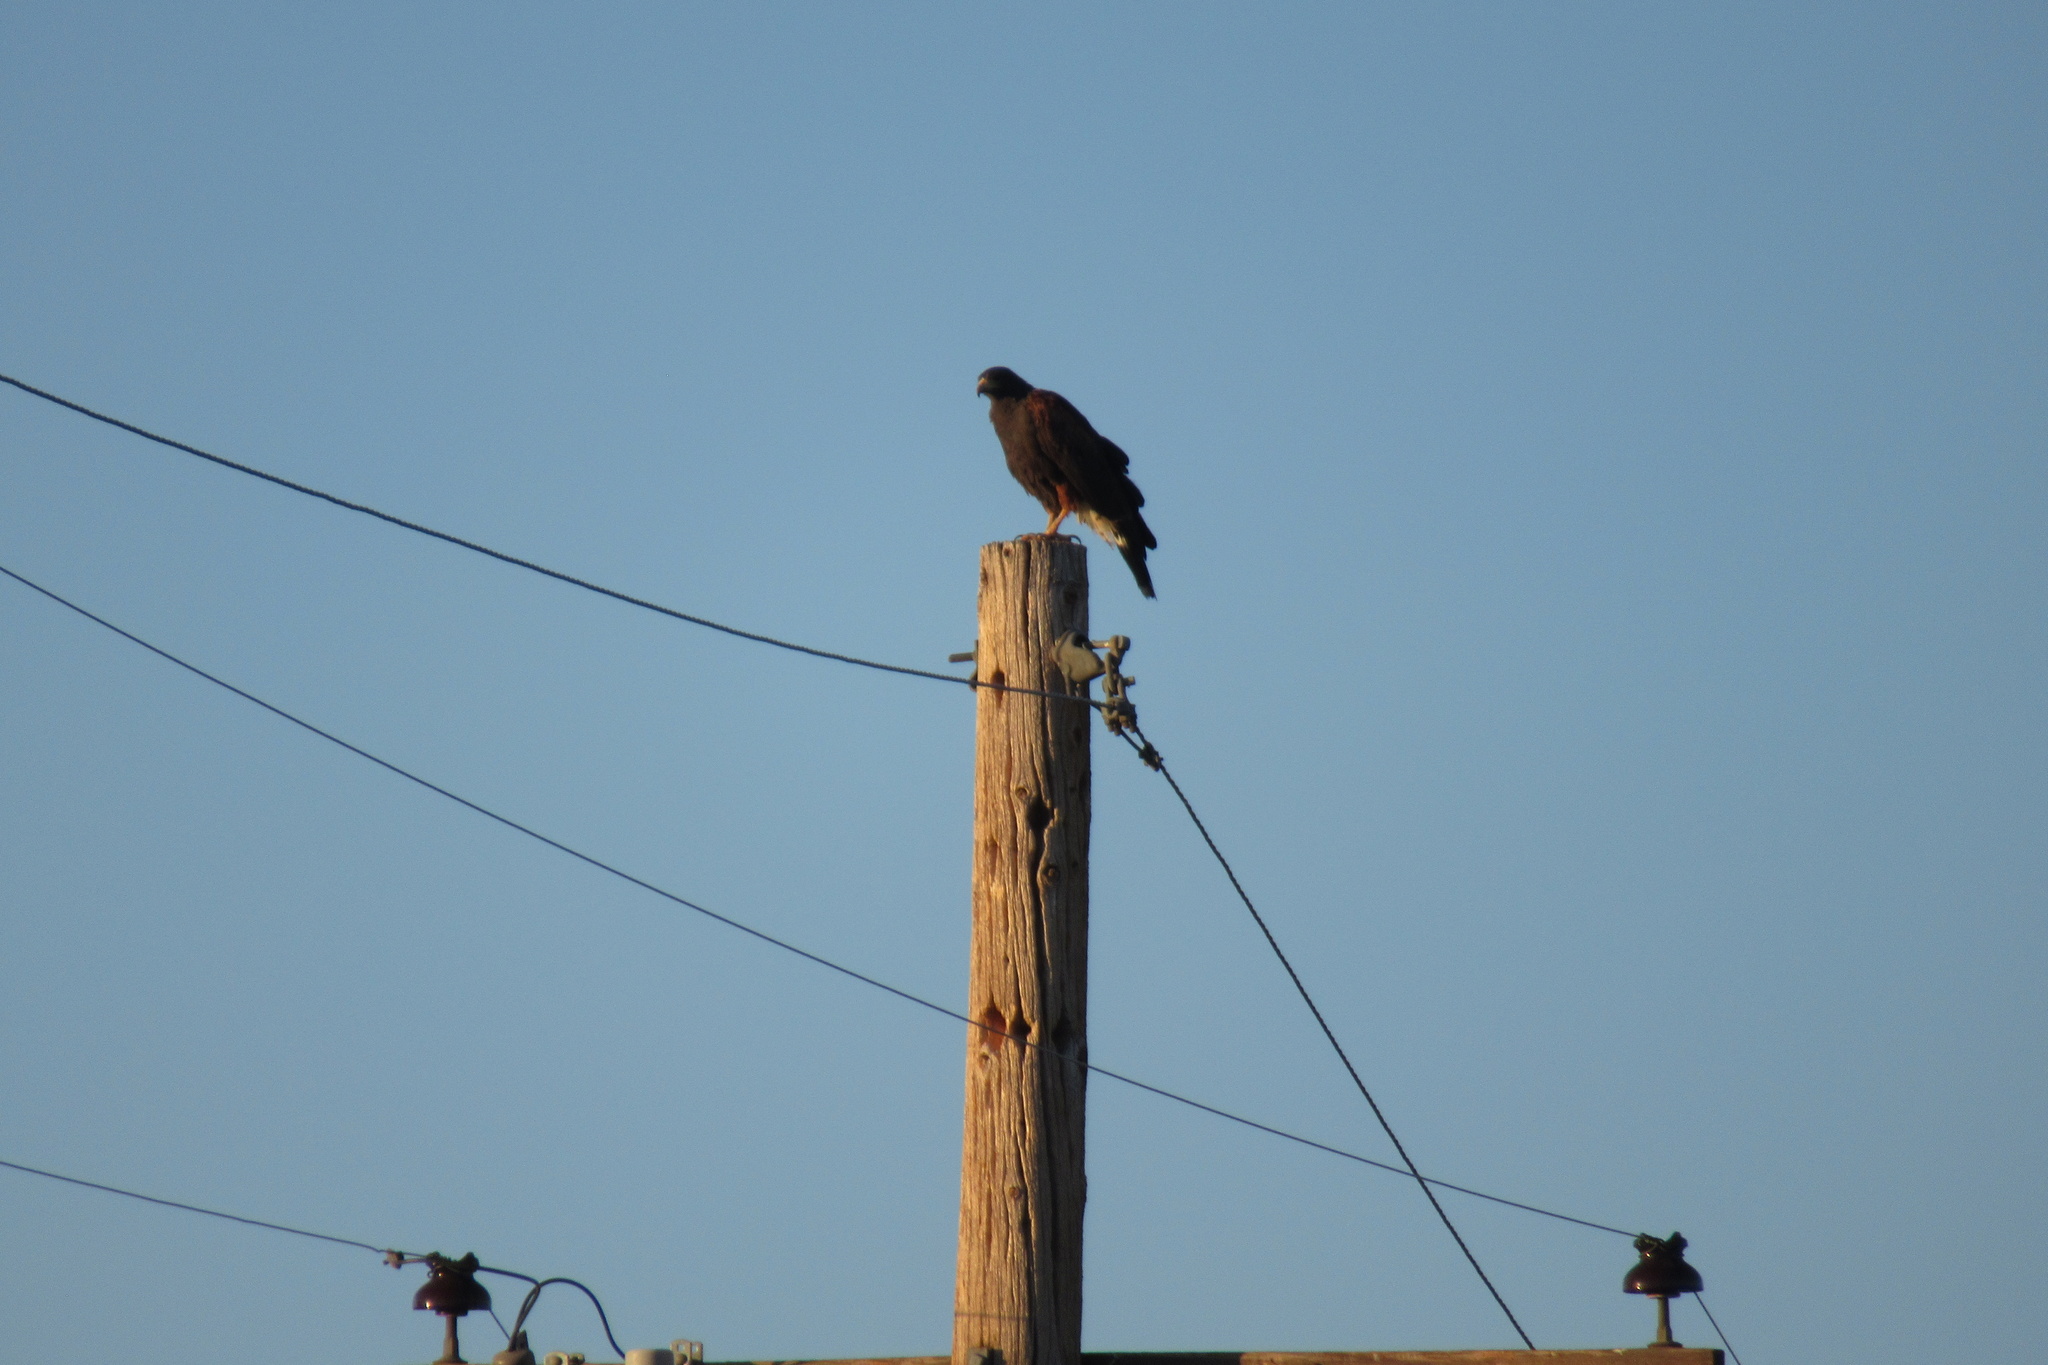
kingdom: Animalia
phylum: Chordata
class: Aves
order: Accipitriformes
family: Accipitridae
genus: Parabuteo
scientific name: Parabuteo unicinctus
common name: Harris's hawk
